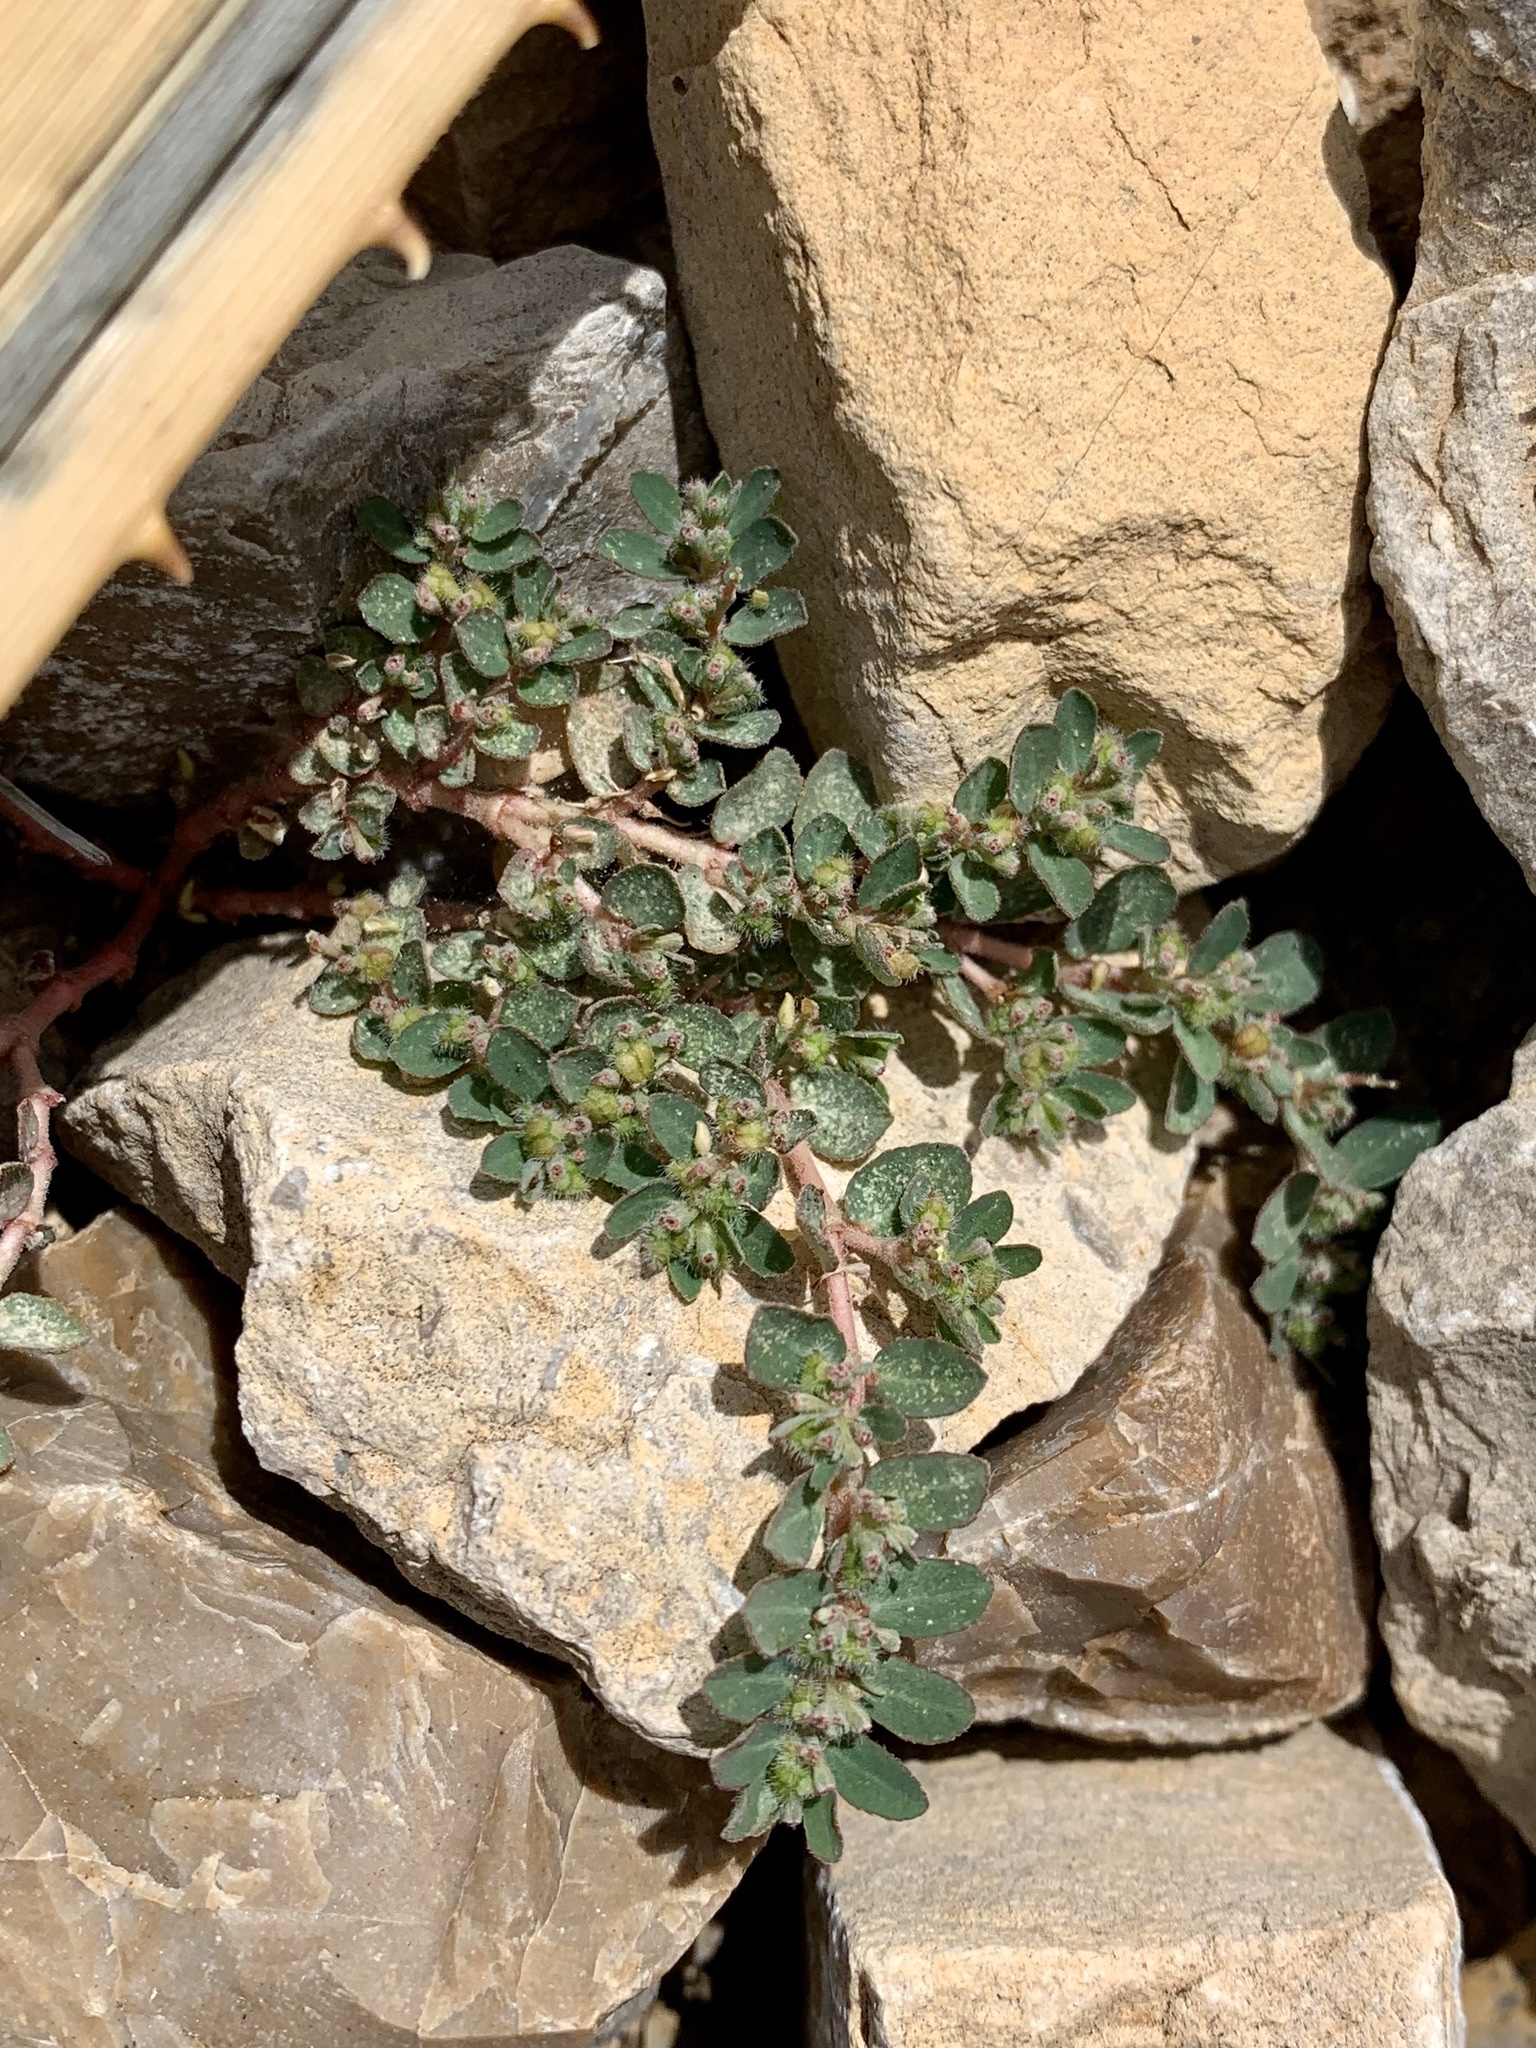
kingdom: Plantae
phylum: Tracheophyta
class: Magnoliopsida
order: Malpighiales
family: Euphorbiaceae
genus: Euphorbia
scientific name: Euphorbia prostrata
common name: Prostrate sandmat
